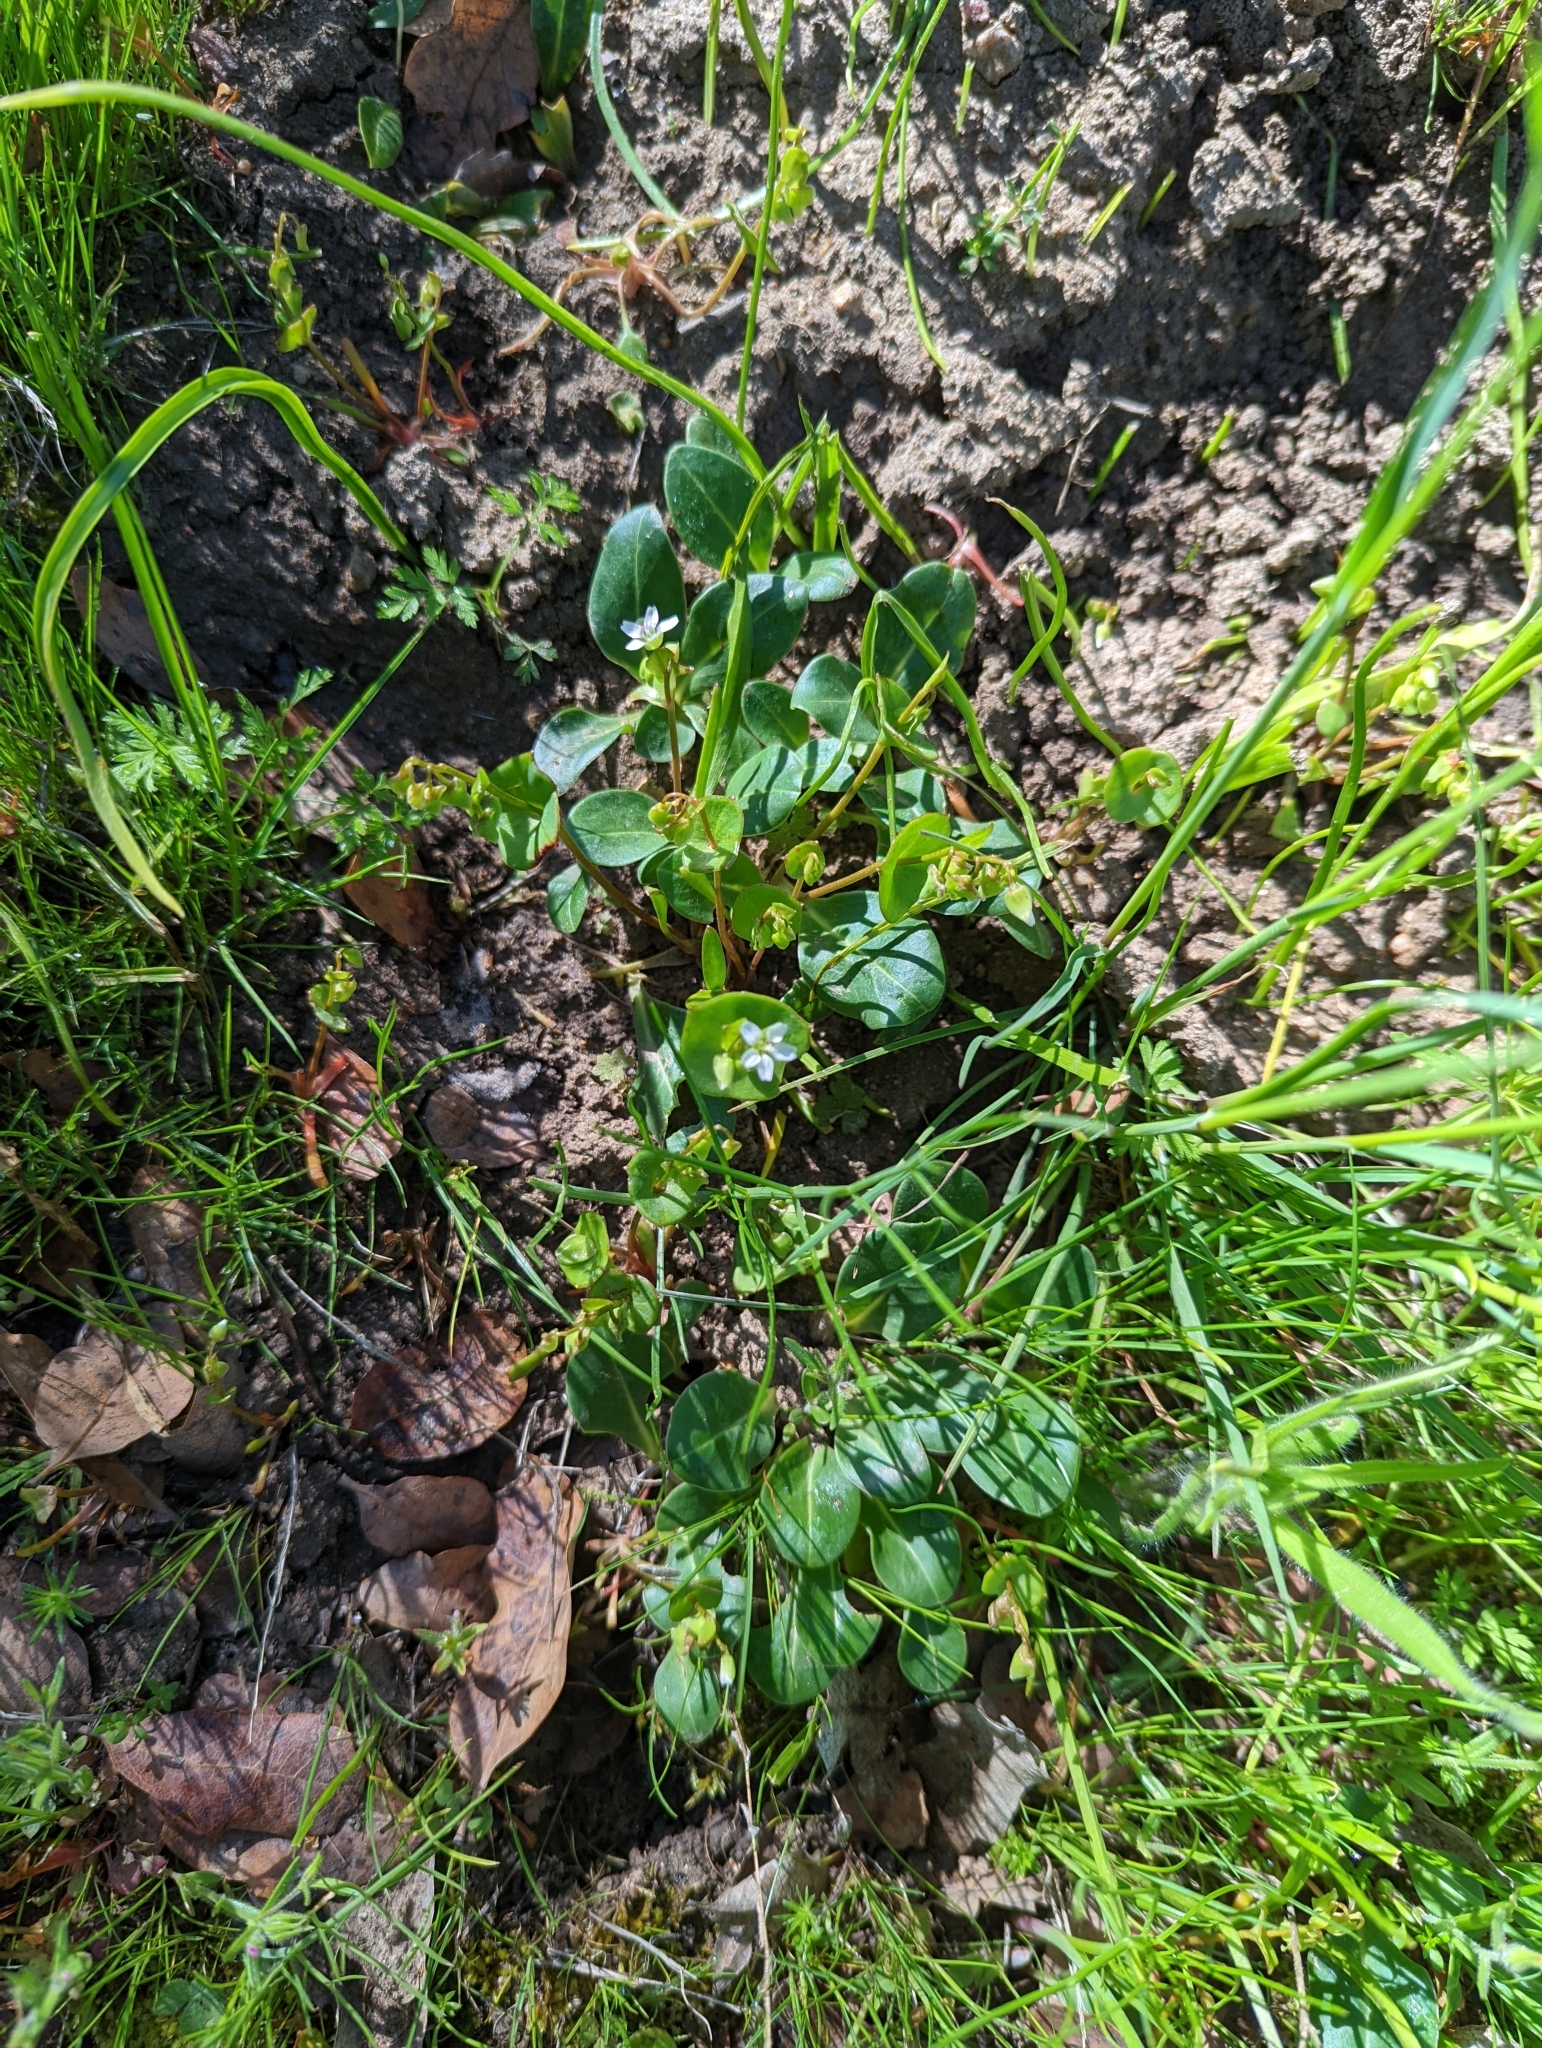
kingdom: Plantae
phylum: Tracheophyta
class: Magnoliopsida
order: Caryophyllales
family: Montiaceae
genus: Claytonia
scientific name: Claytonia parviflora
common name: Indian-lettuce
